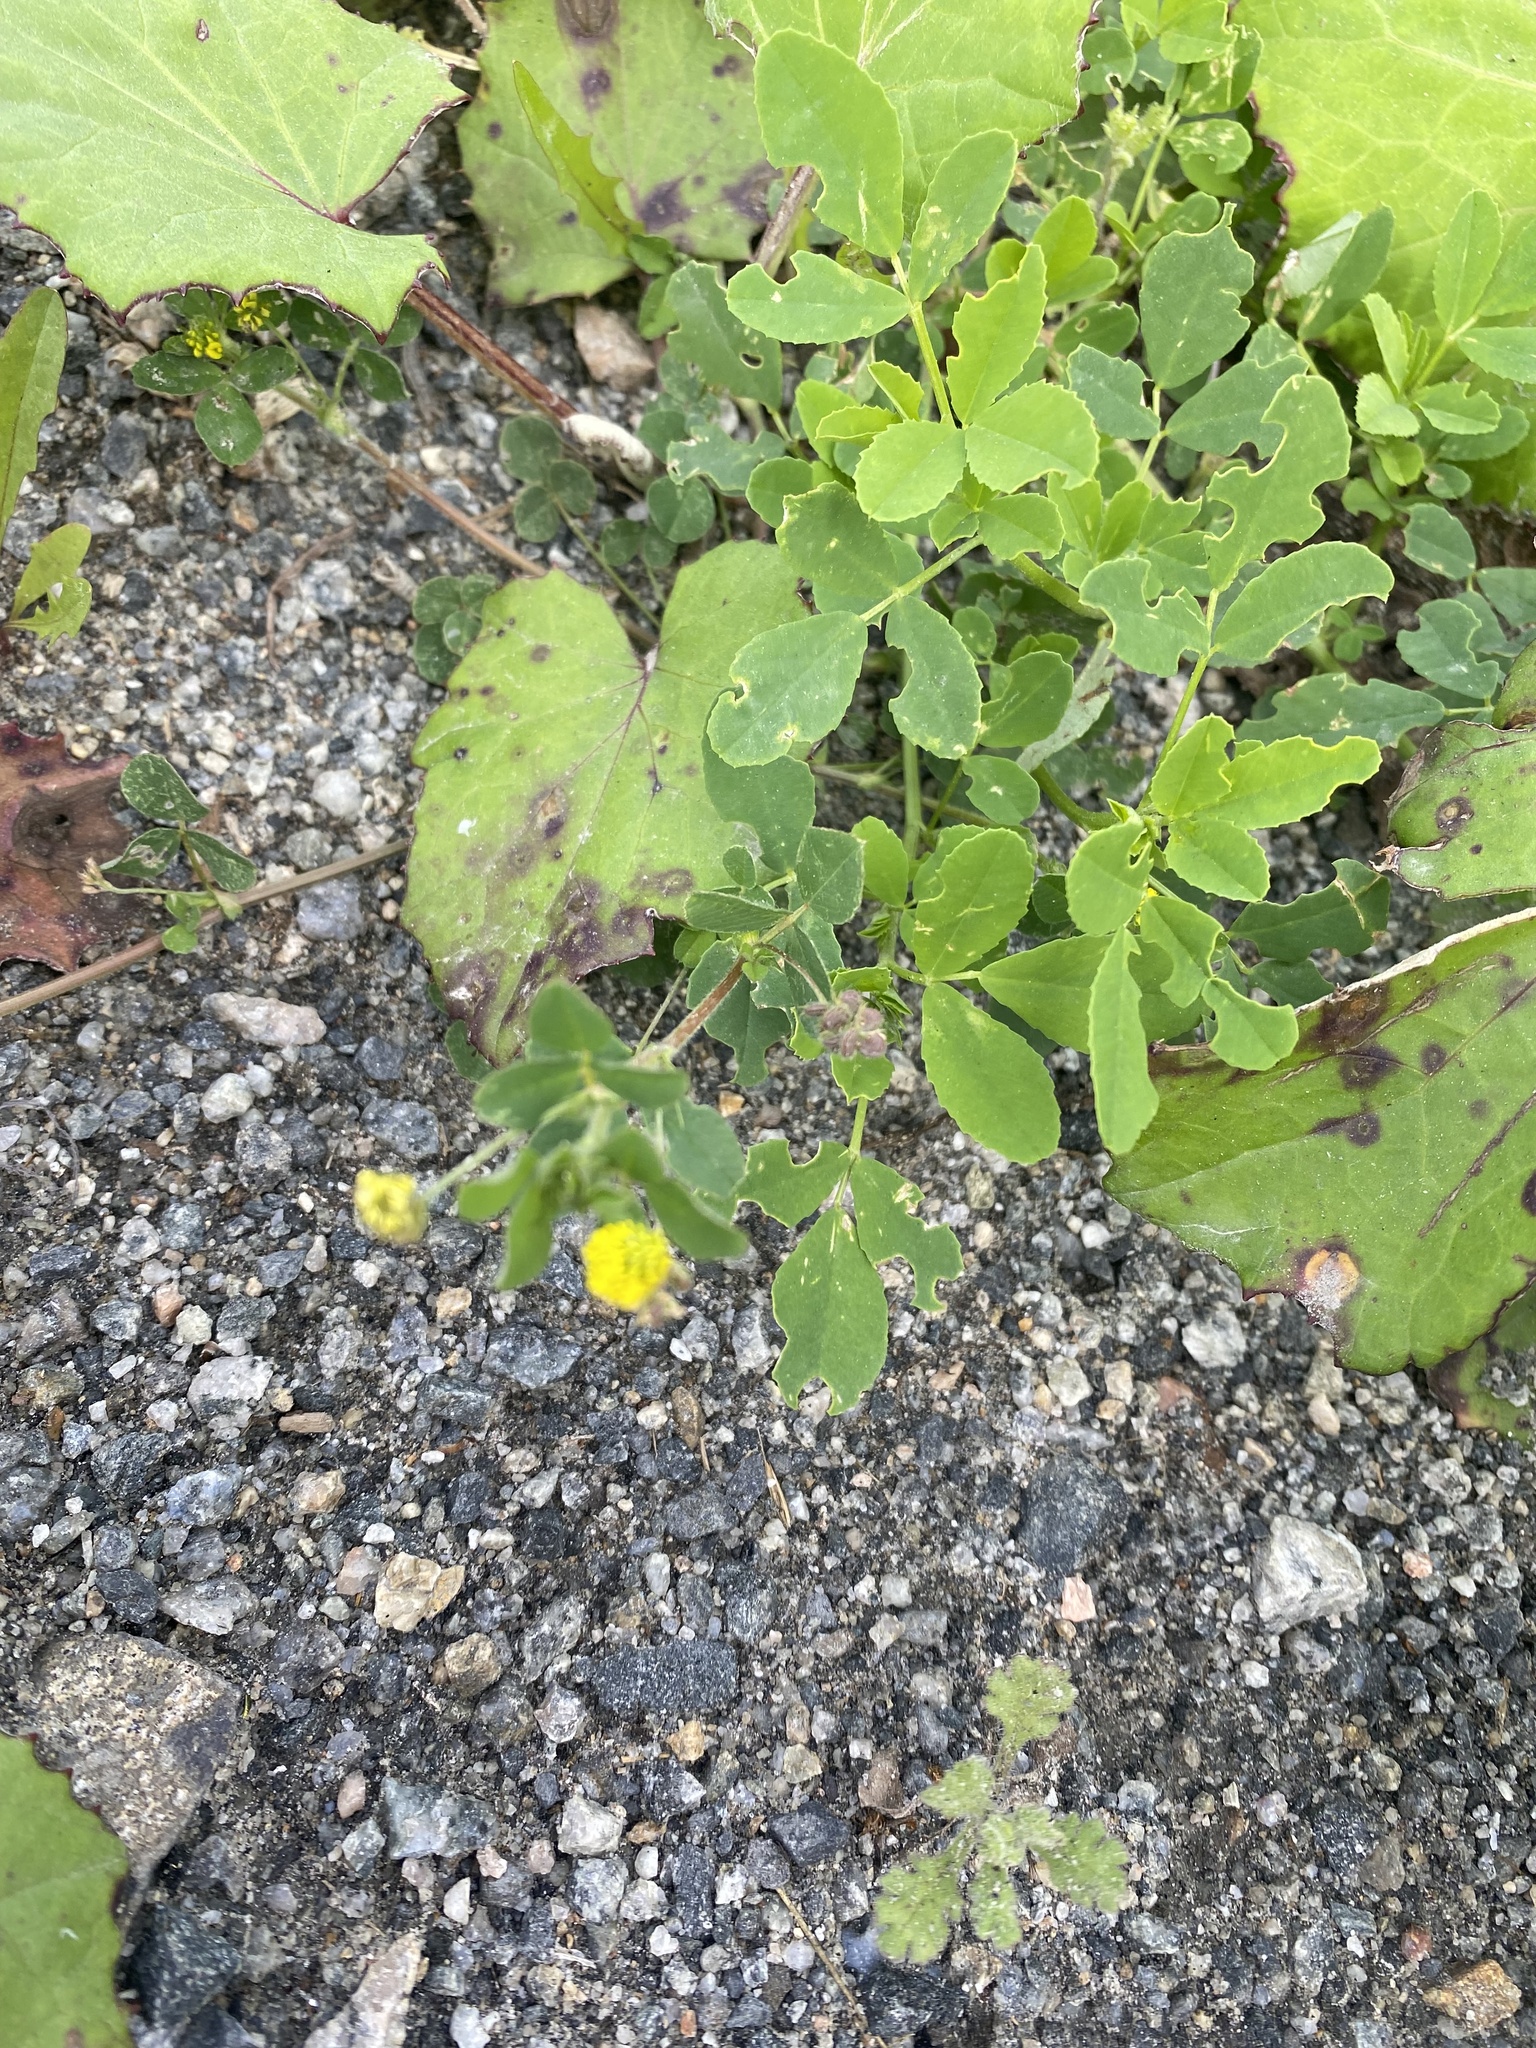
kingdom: Plantae
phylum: Tracheophyta
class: Magnoliopsida
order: Fabales
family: Fabaceae
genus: Medicago
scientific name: Medicago lupulina
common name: Black medick
